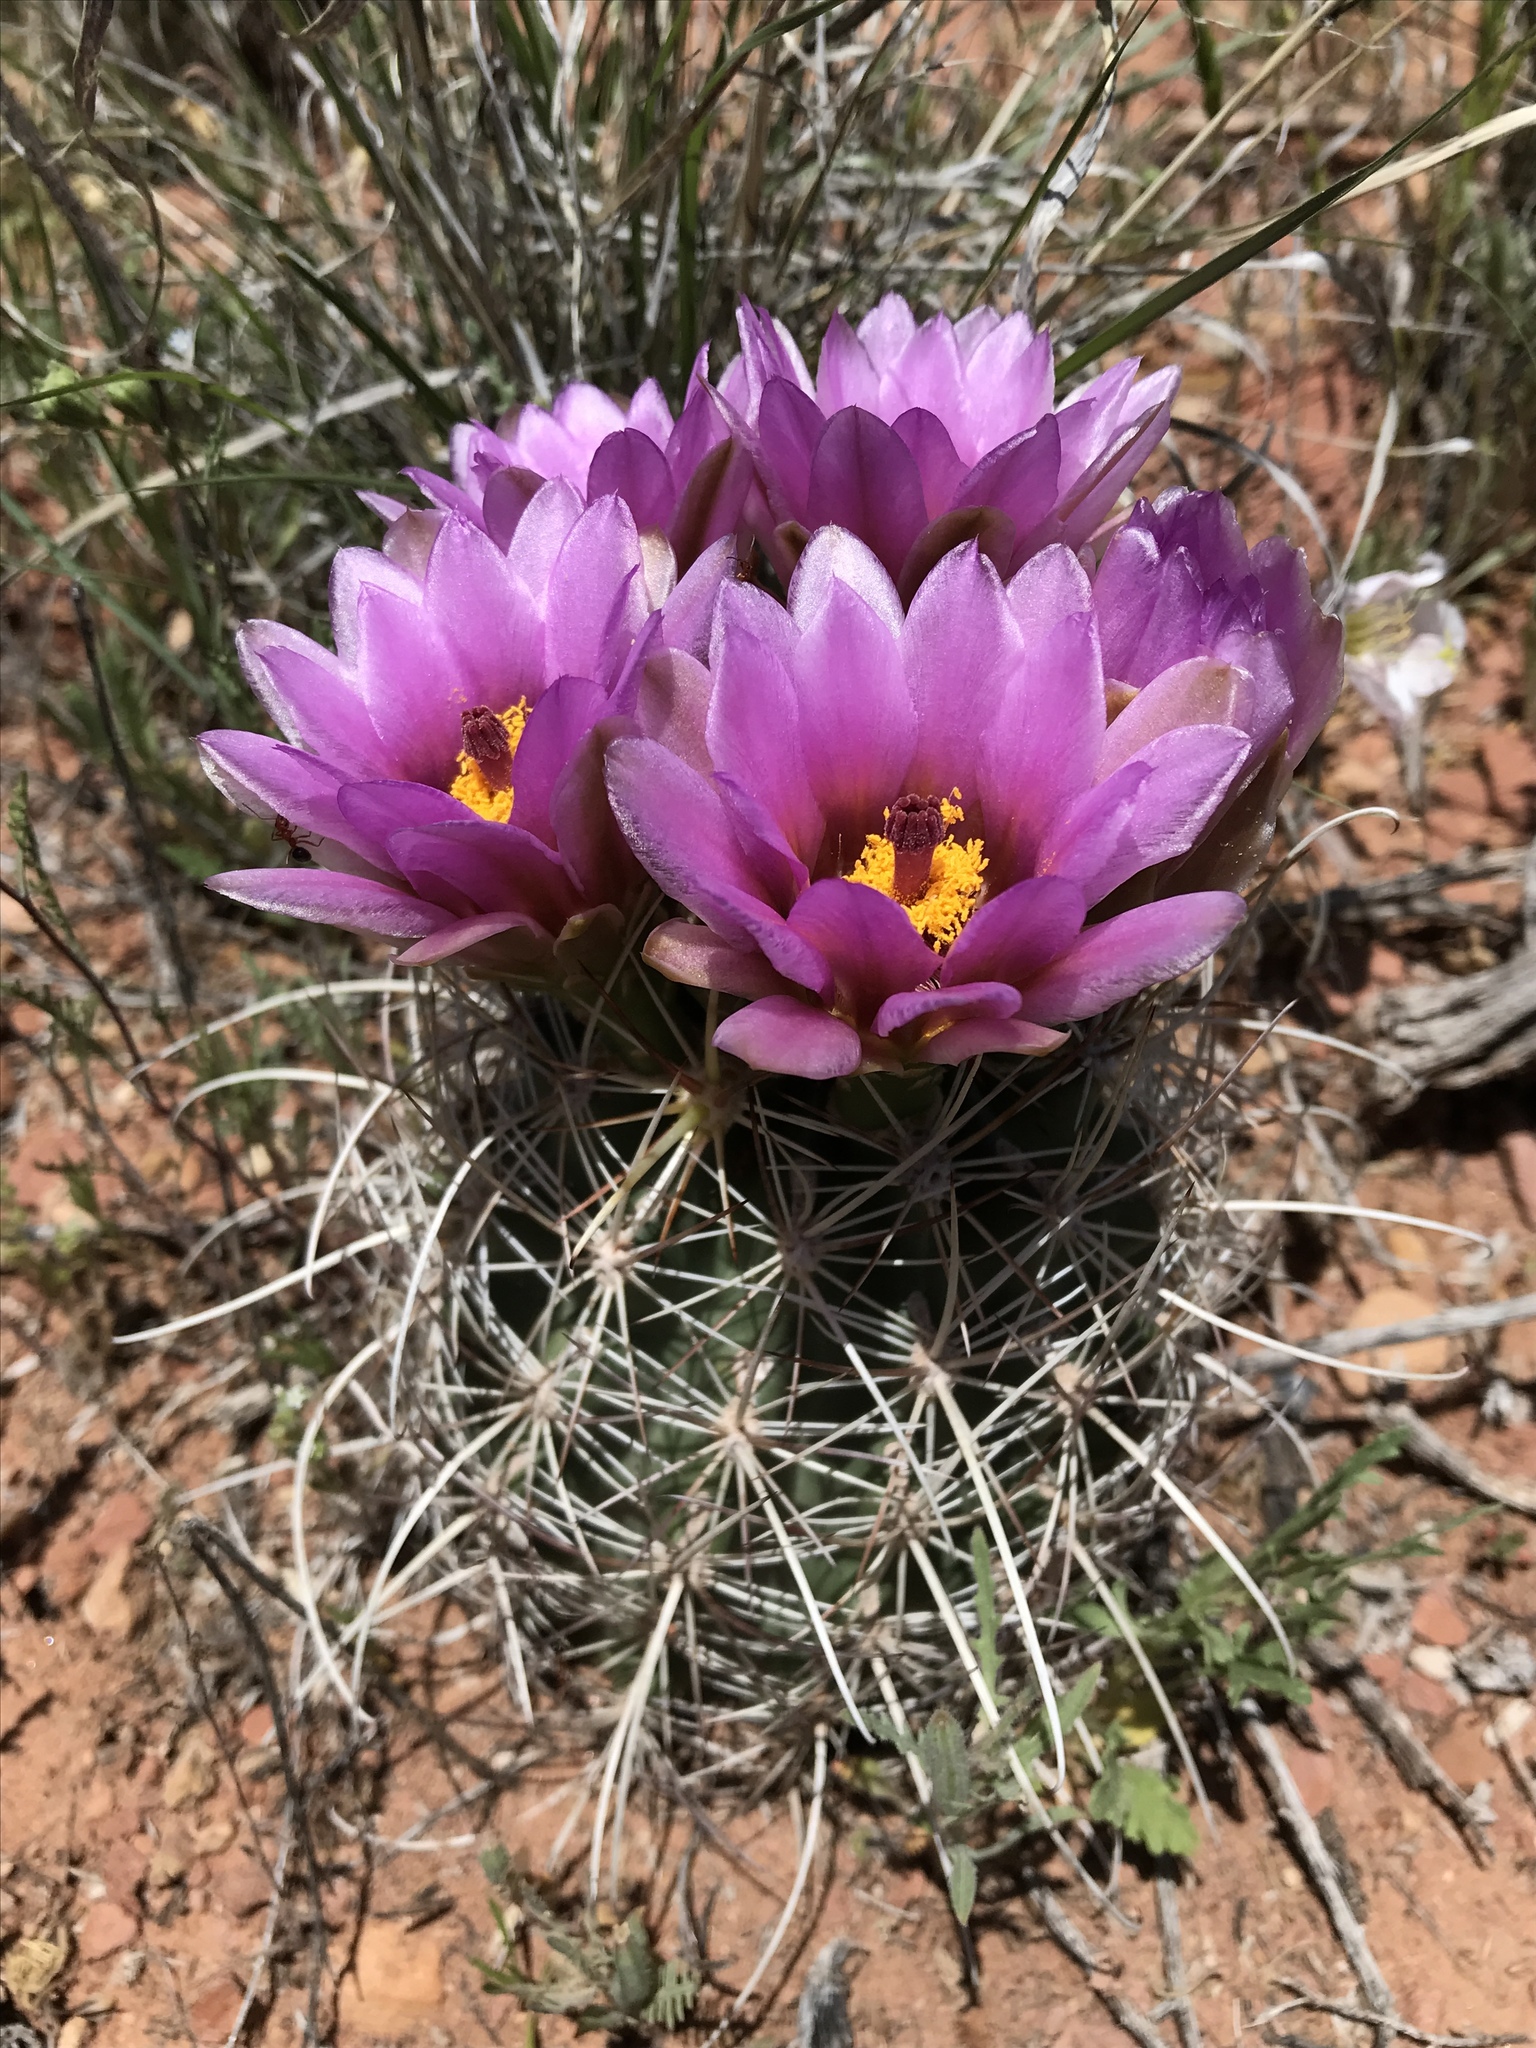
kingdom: Plantae
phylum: Tracheophyta
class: Magnoliopsida
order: Caryophyllales
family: Cactaceae
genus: Sclerocactus
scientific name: Sclerocactus parviflorus
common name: Small-flower fishhook cactus
